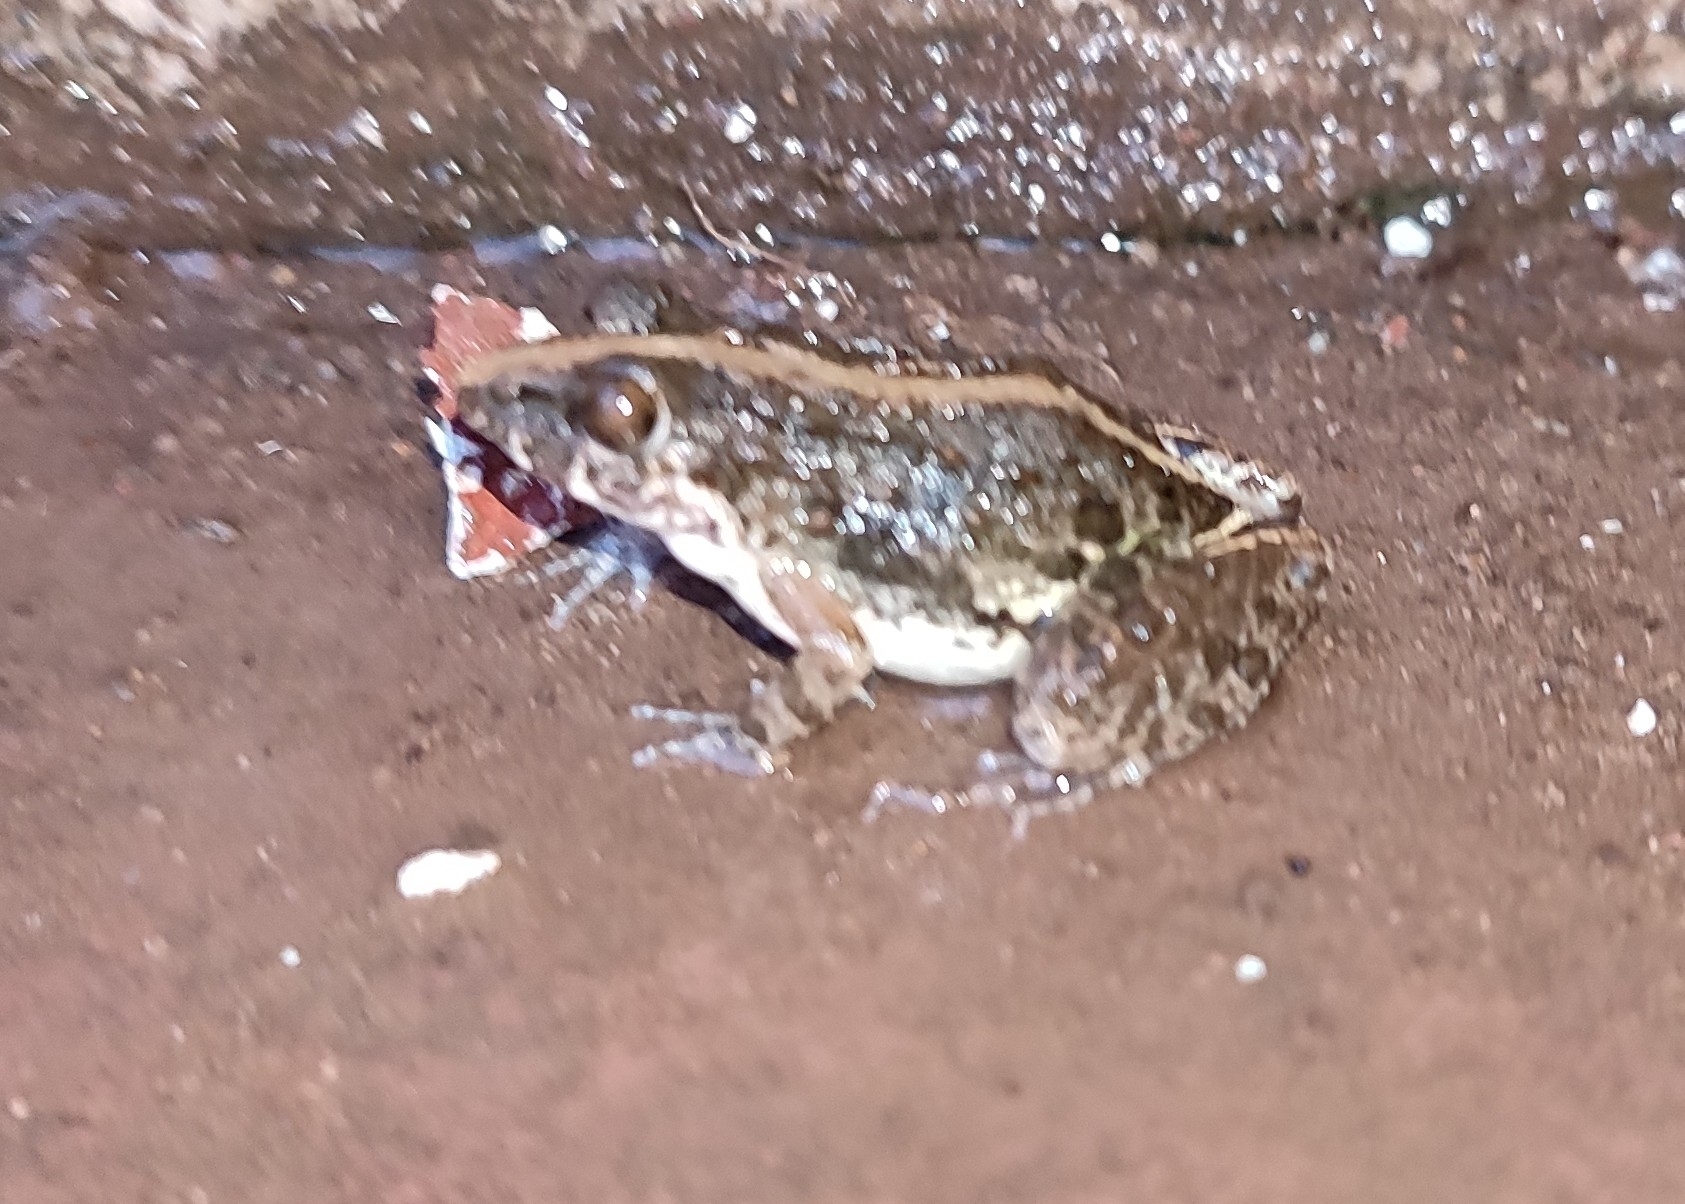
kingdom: Animalia
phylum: Chordata
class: Amphibia
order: Anura
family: Dicroglossidae
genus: Minervarya
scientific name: Minervarya agricola
